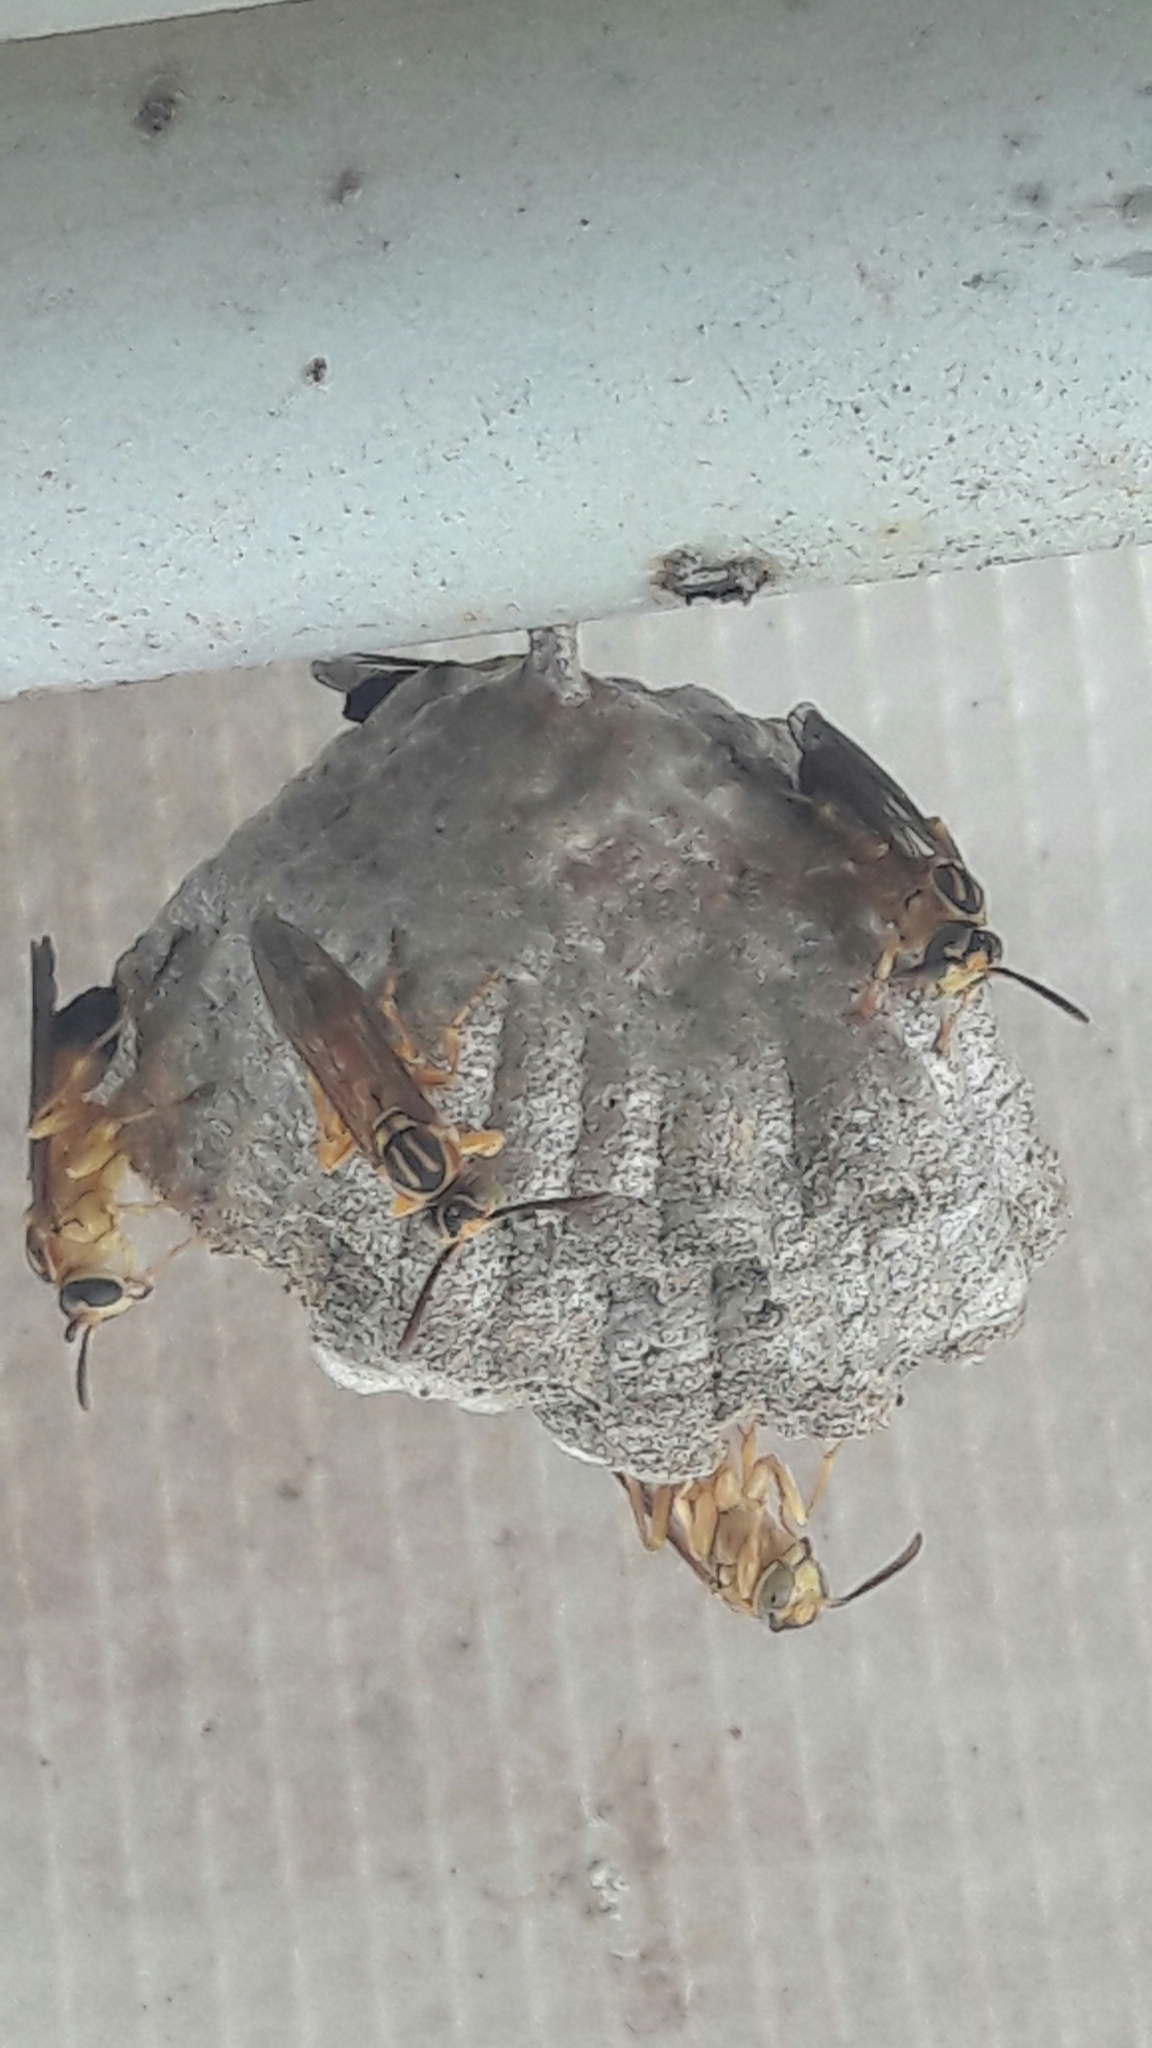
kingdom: Animalia
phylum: Arthropoda
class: Insecta
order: Hymenoptera
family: Vespidae
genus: Mischocyttarus
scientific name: Mischocyttarus cerberus
